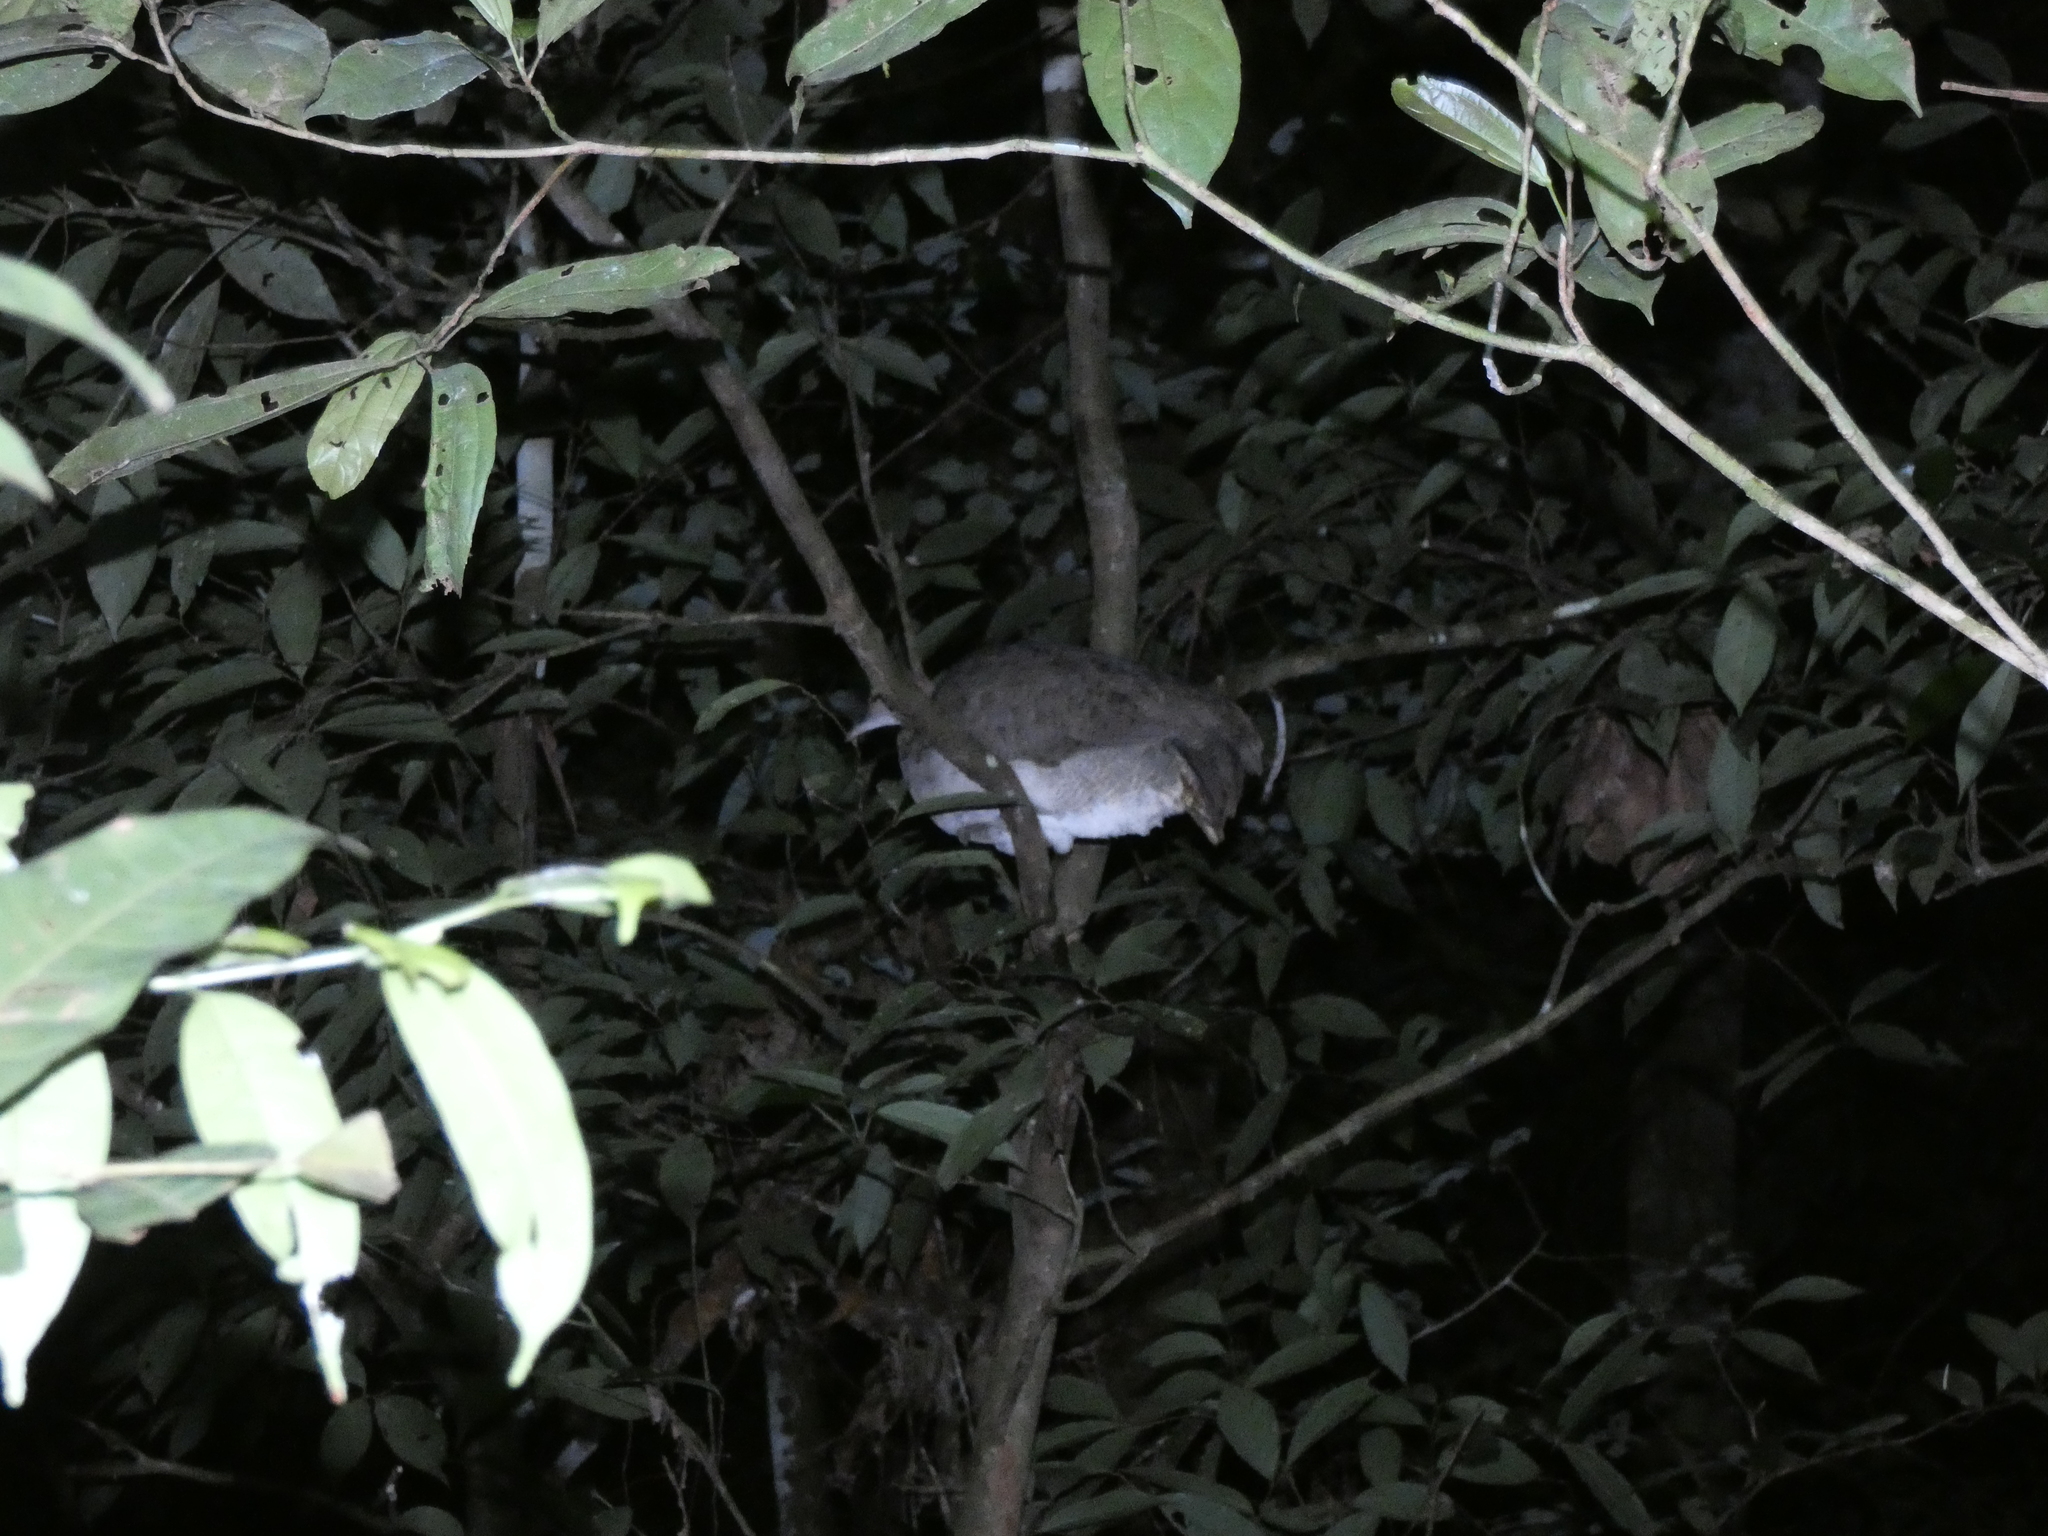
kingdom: Animalia
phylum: Chordata
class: Aves
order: Tinamiformes
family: Tinamidae
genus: Tinamus
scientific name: Tinamus major
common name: Great tinamou
